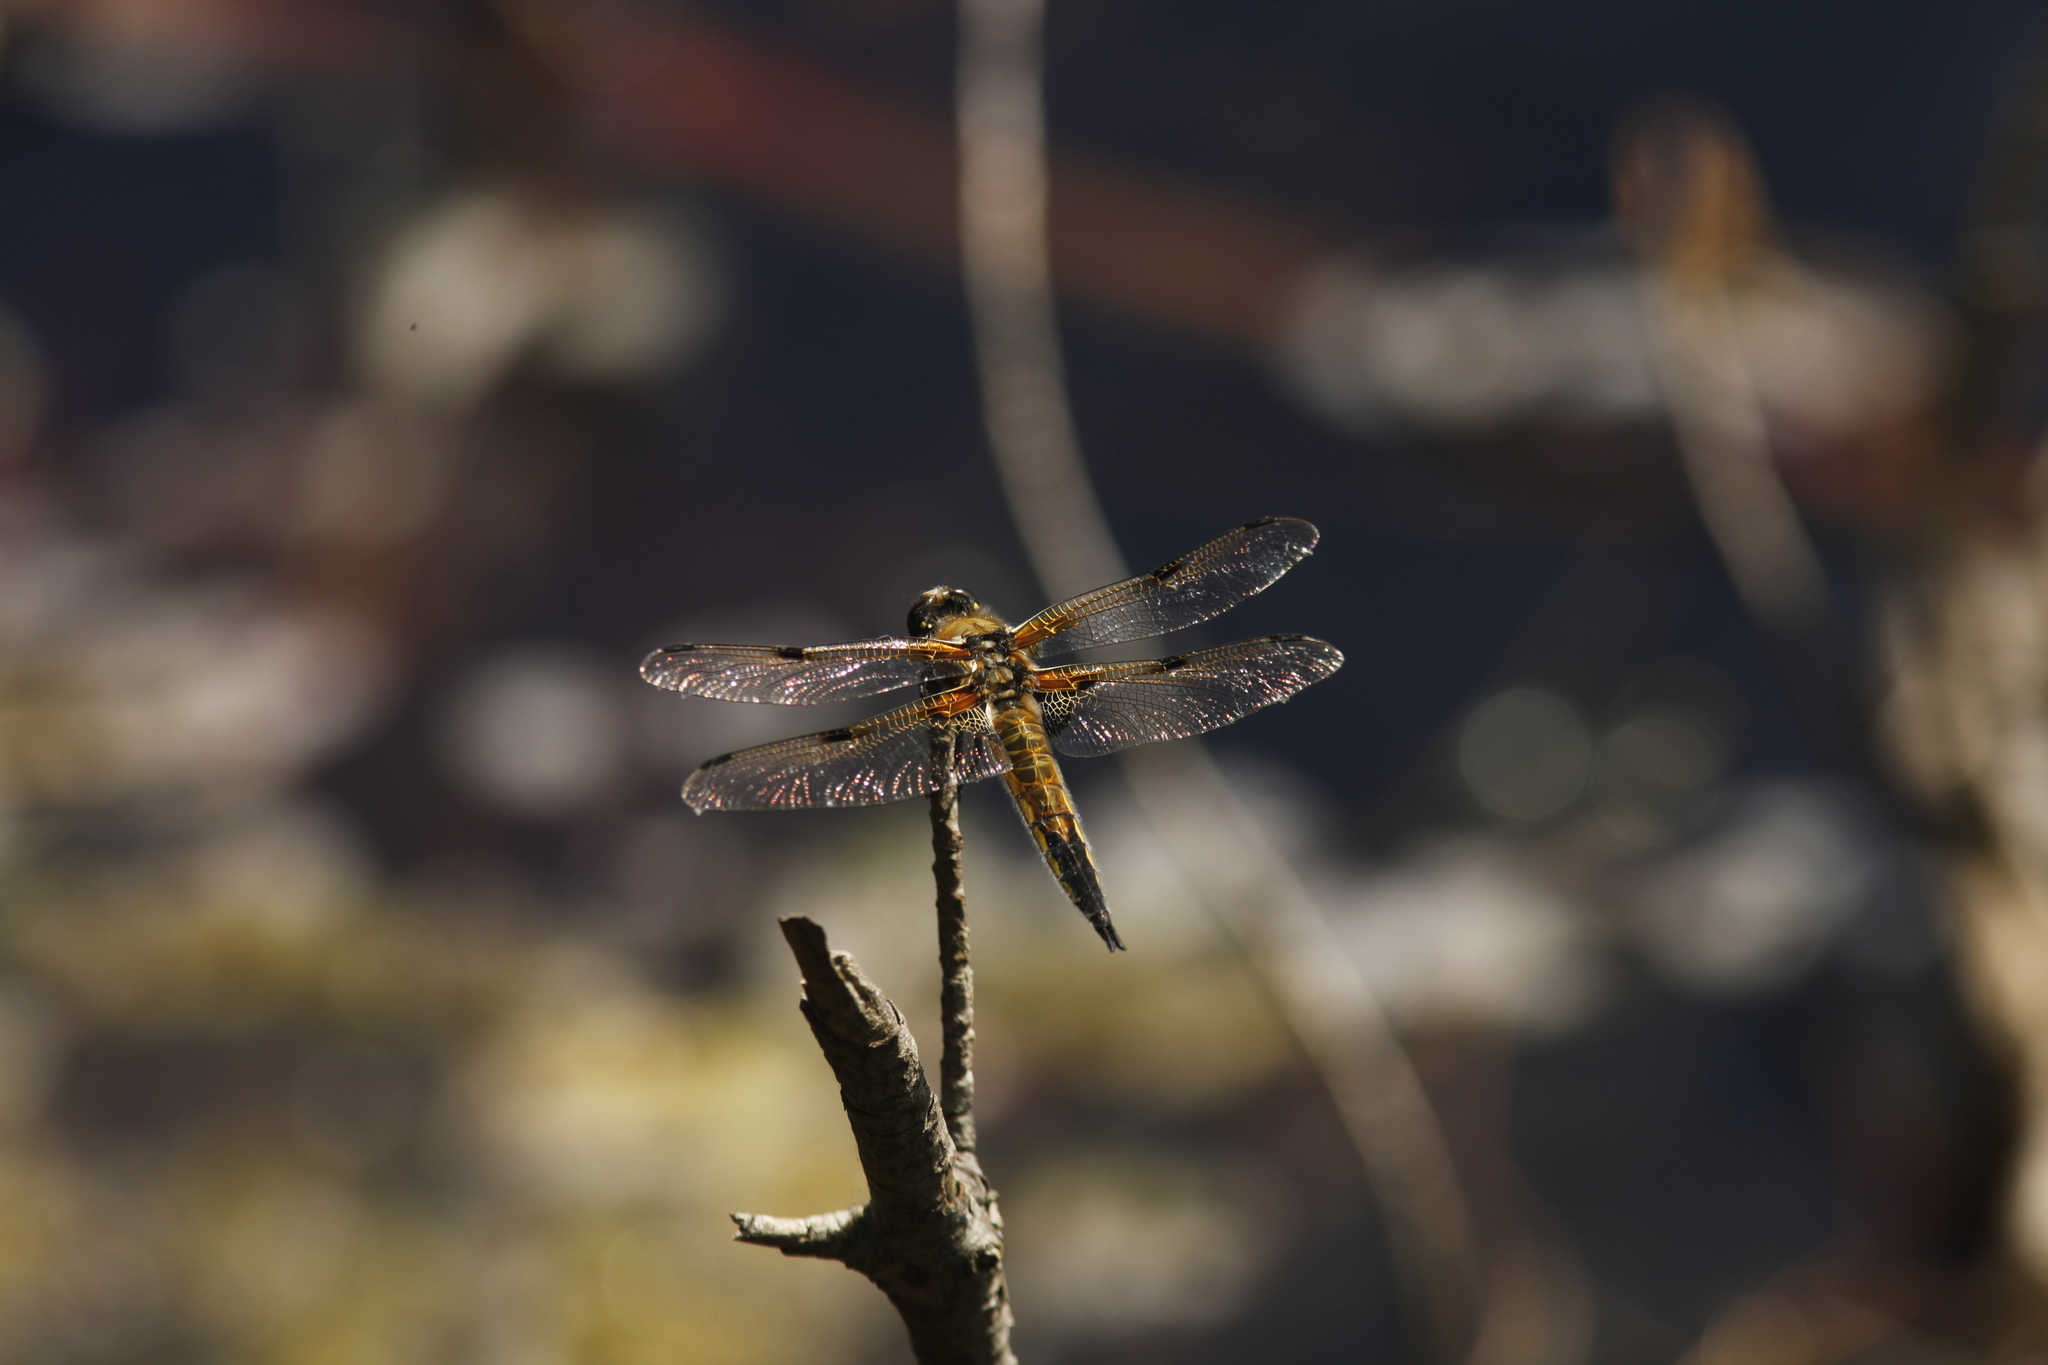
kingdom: Animalia
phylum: Arthropoda
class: Insecta
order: Odonata
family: Libellulidae
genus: Libellula
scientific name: Libellula quadrimaculata
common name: Four-spotted chaser
